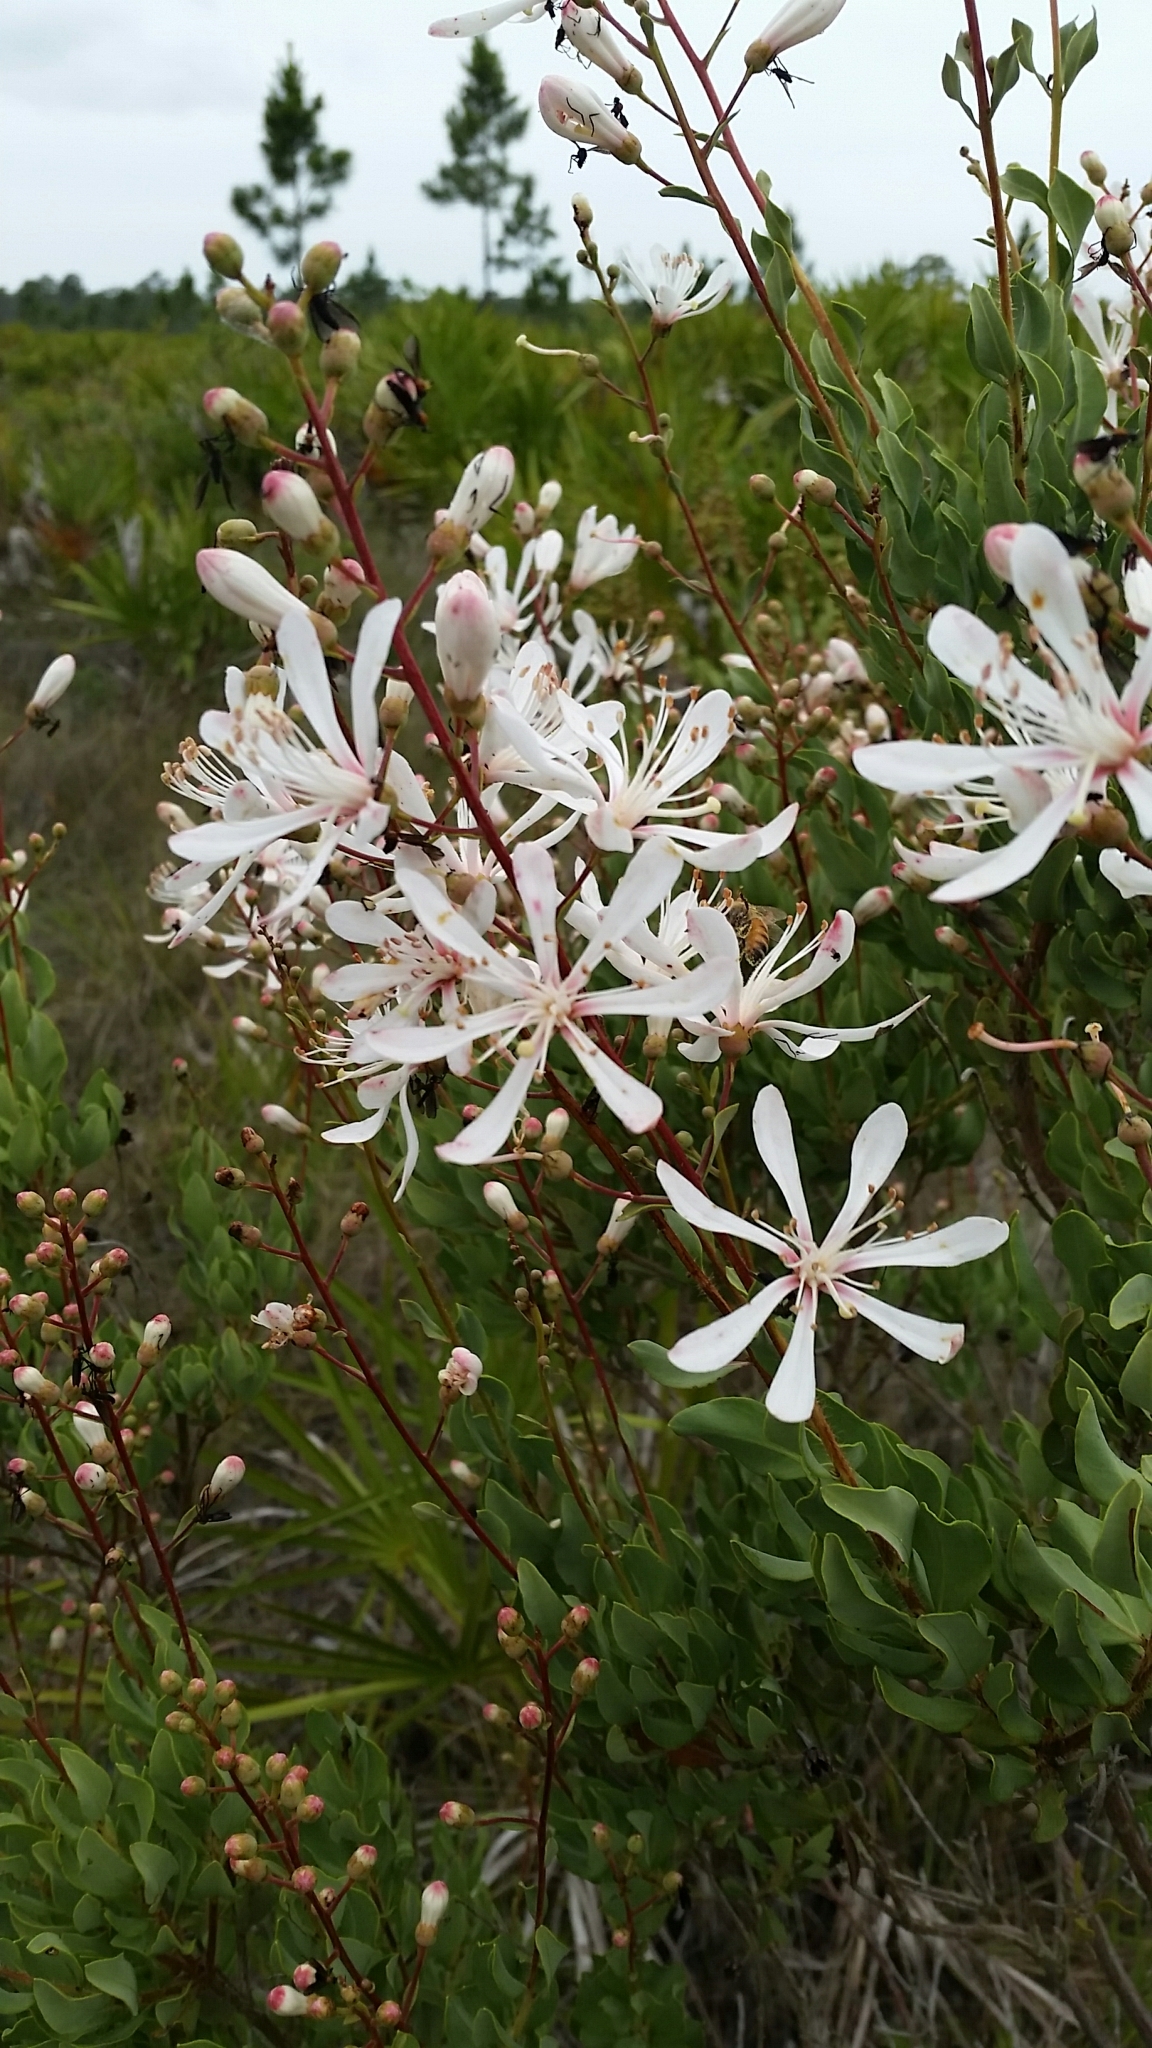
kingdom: Plantae
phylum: Tracheophyta
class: Magnoliopsida
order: Ericales
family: Ericaceae
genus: Bejaria
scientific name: Bejaria racemosa
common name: Tarflower
